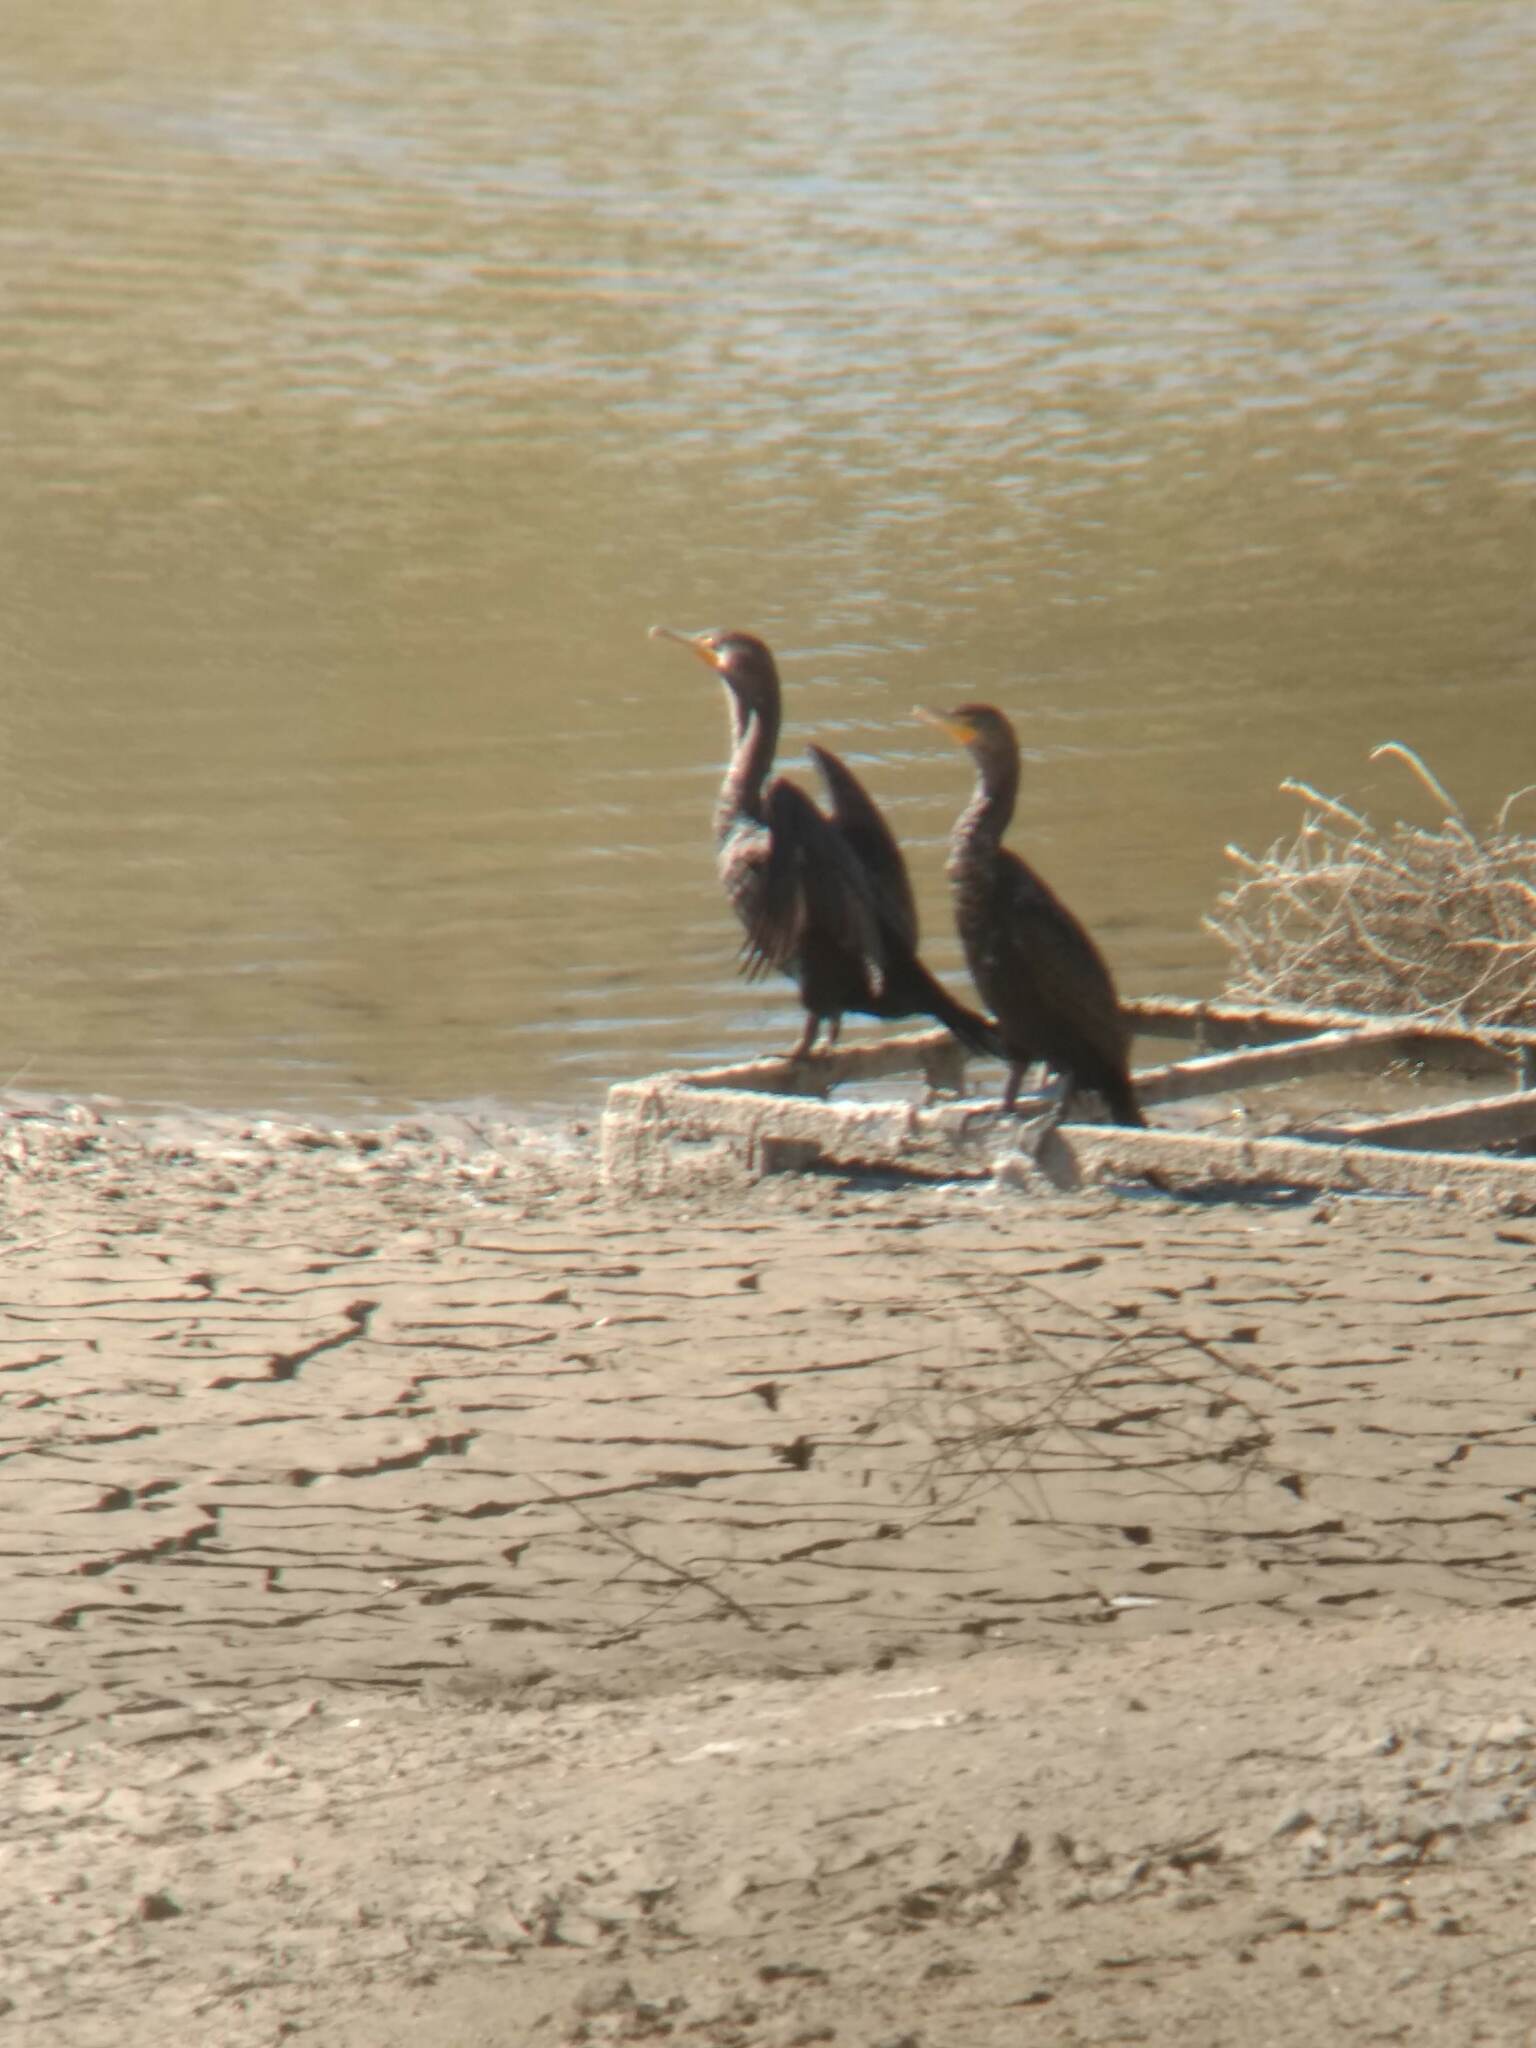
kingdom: Animalia
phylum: Chordata
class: Aves
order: Suliformes
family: Phalacrocoracidae
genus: Phalacrocorax
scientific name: Phalacrocorax auritus
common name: Double-crested cormorant
